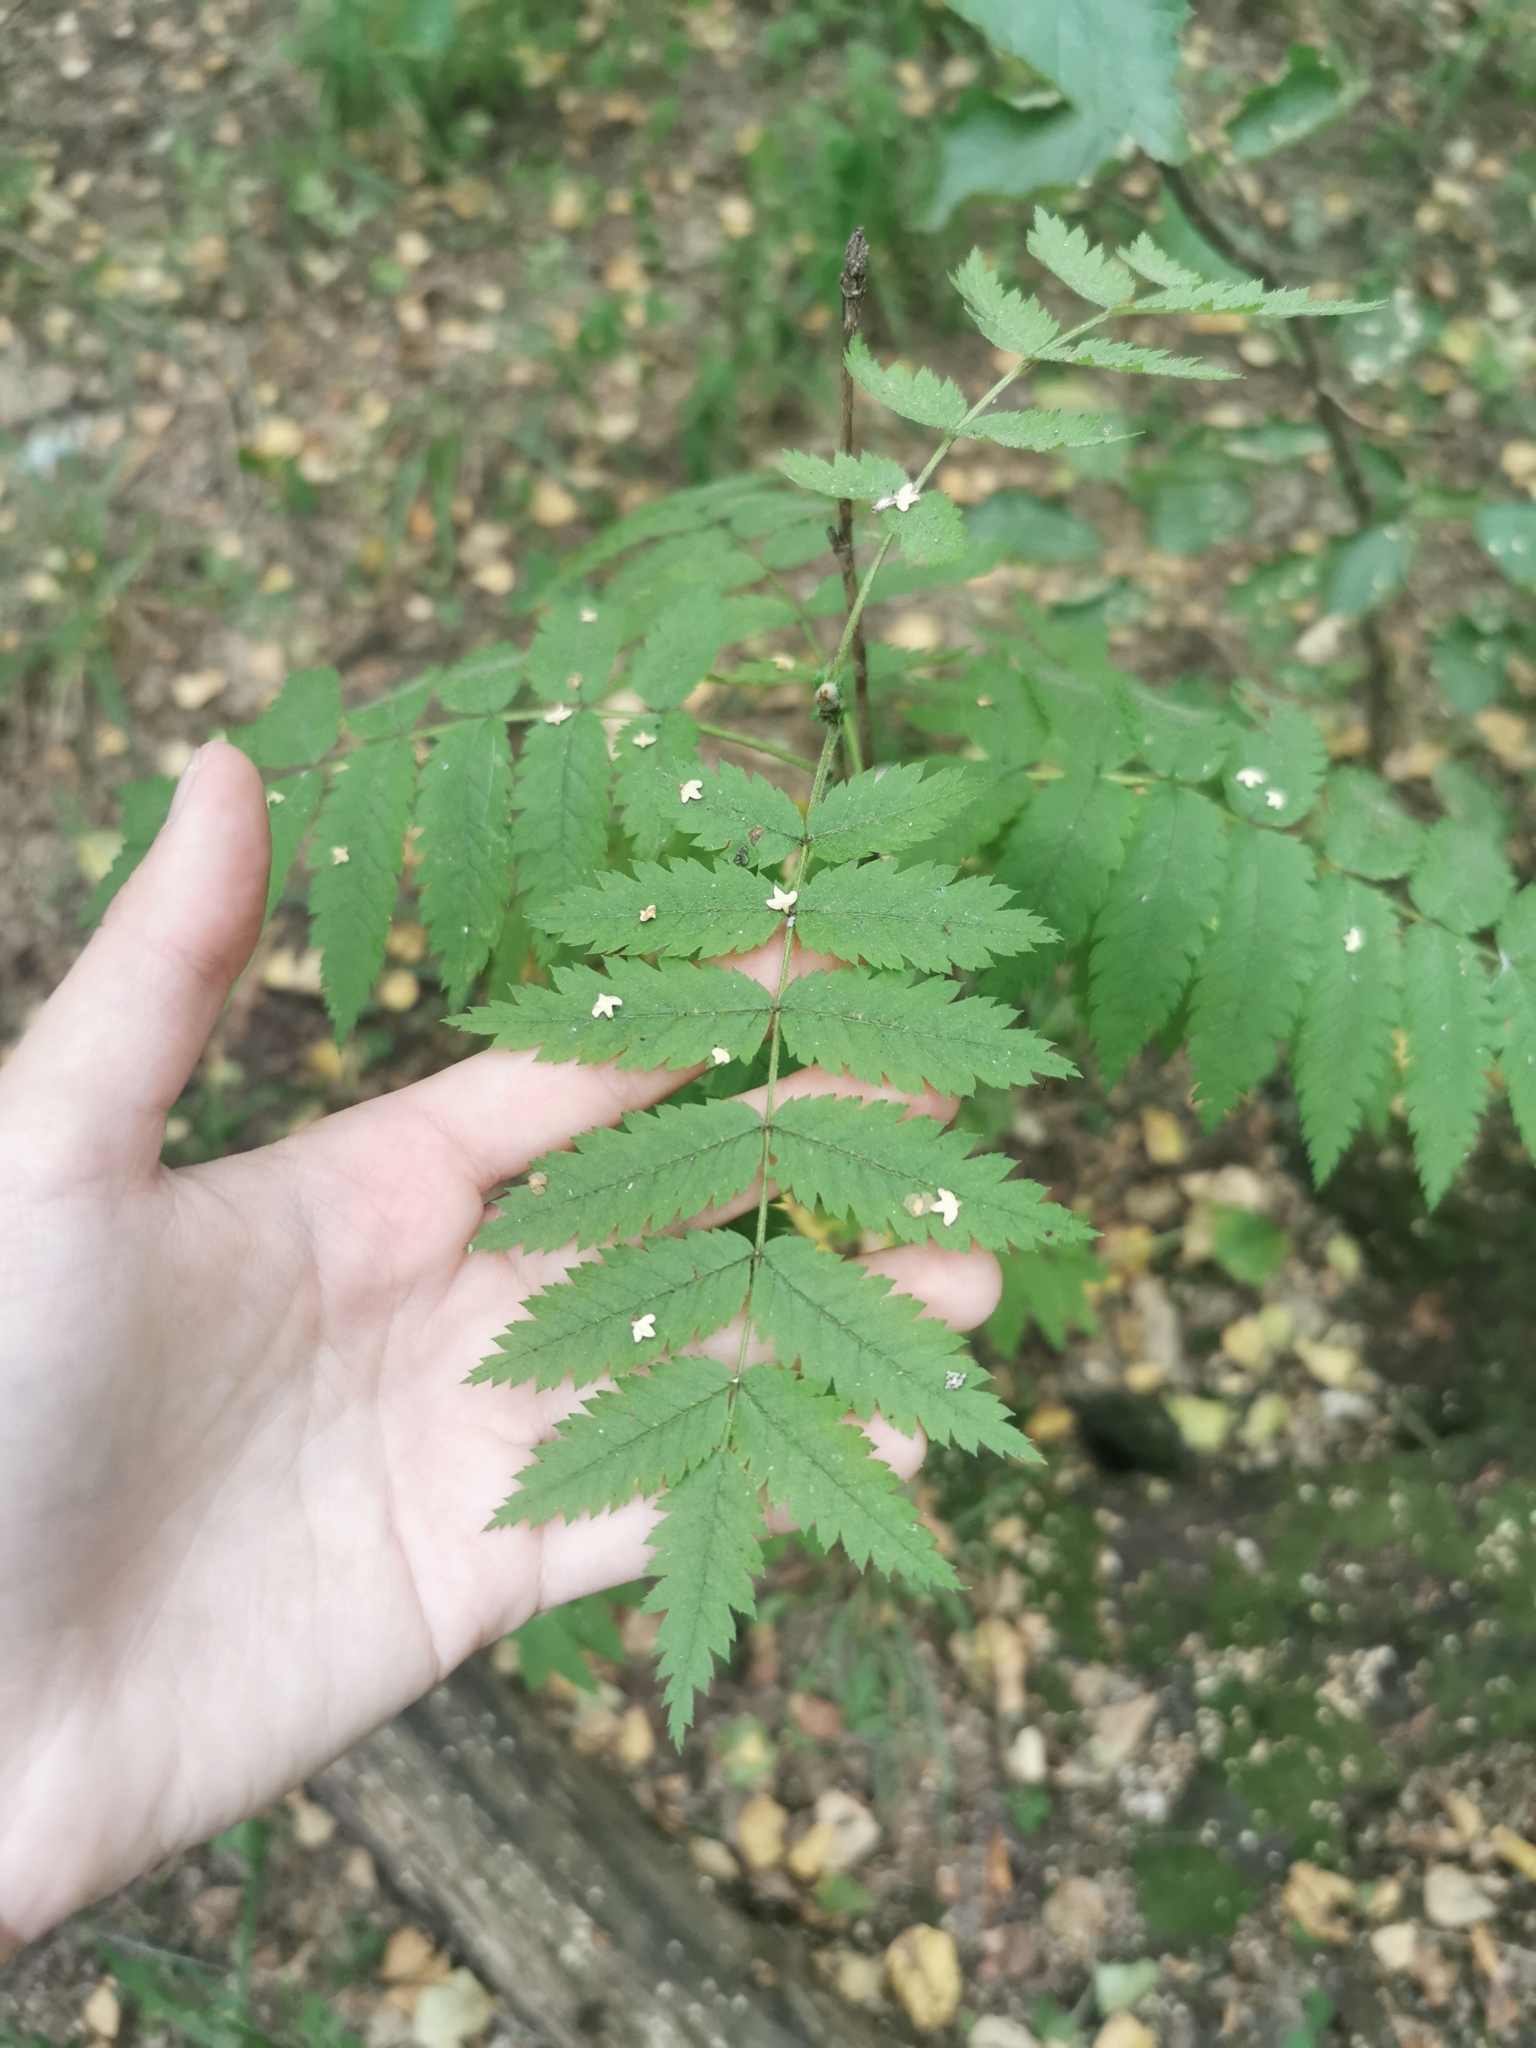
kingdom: Plantae
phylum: Tracheophyta
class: Magnoliopsida
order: Rosales
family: Rosaceae
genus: Sorbus
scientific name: Sorbus aucuparia
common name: Rowan
